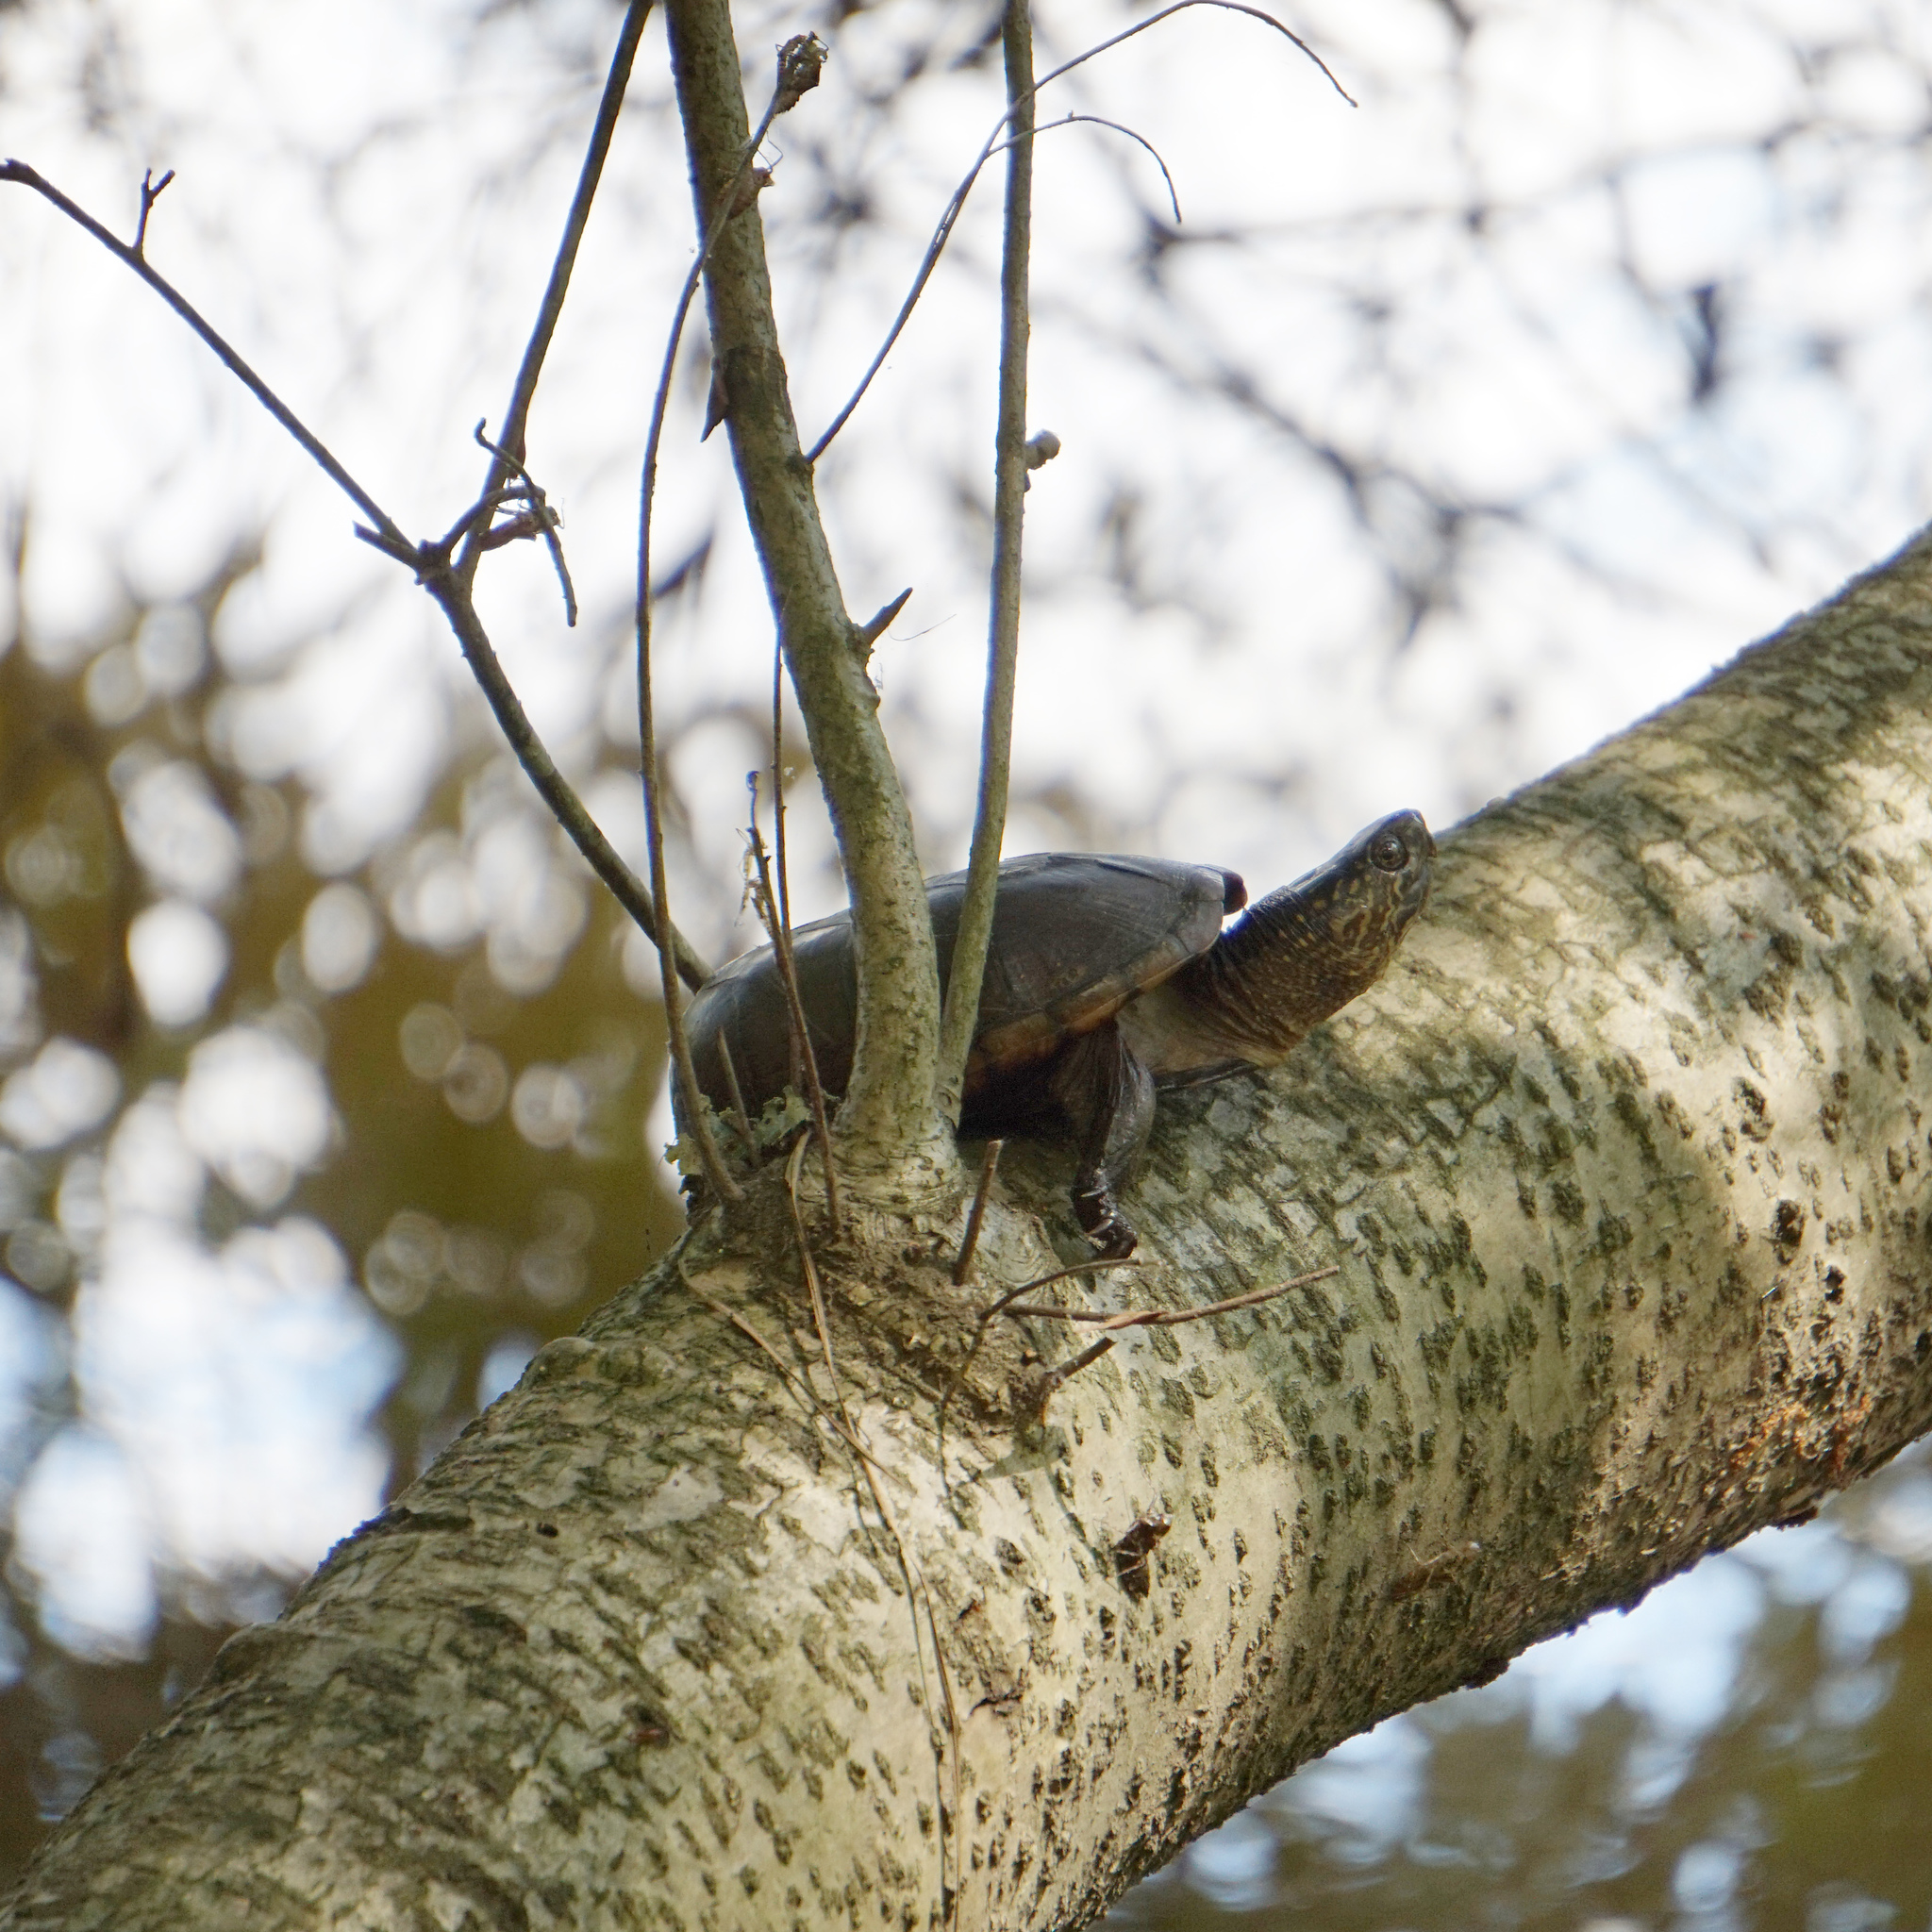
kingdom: Animalia
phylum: Chordata
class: Testudines
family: Kinosternidae
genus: Kinosternon
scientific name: Kinosternon subrubrum
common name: Eastern mud turtle
